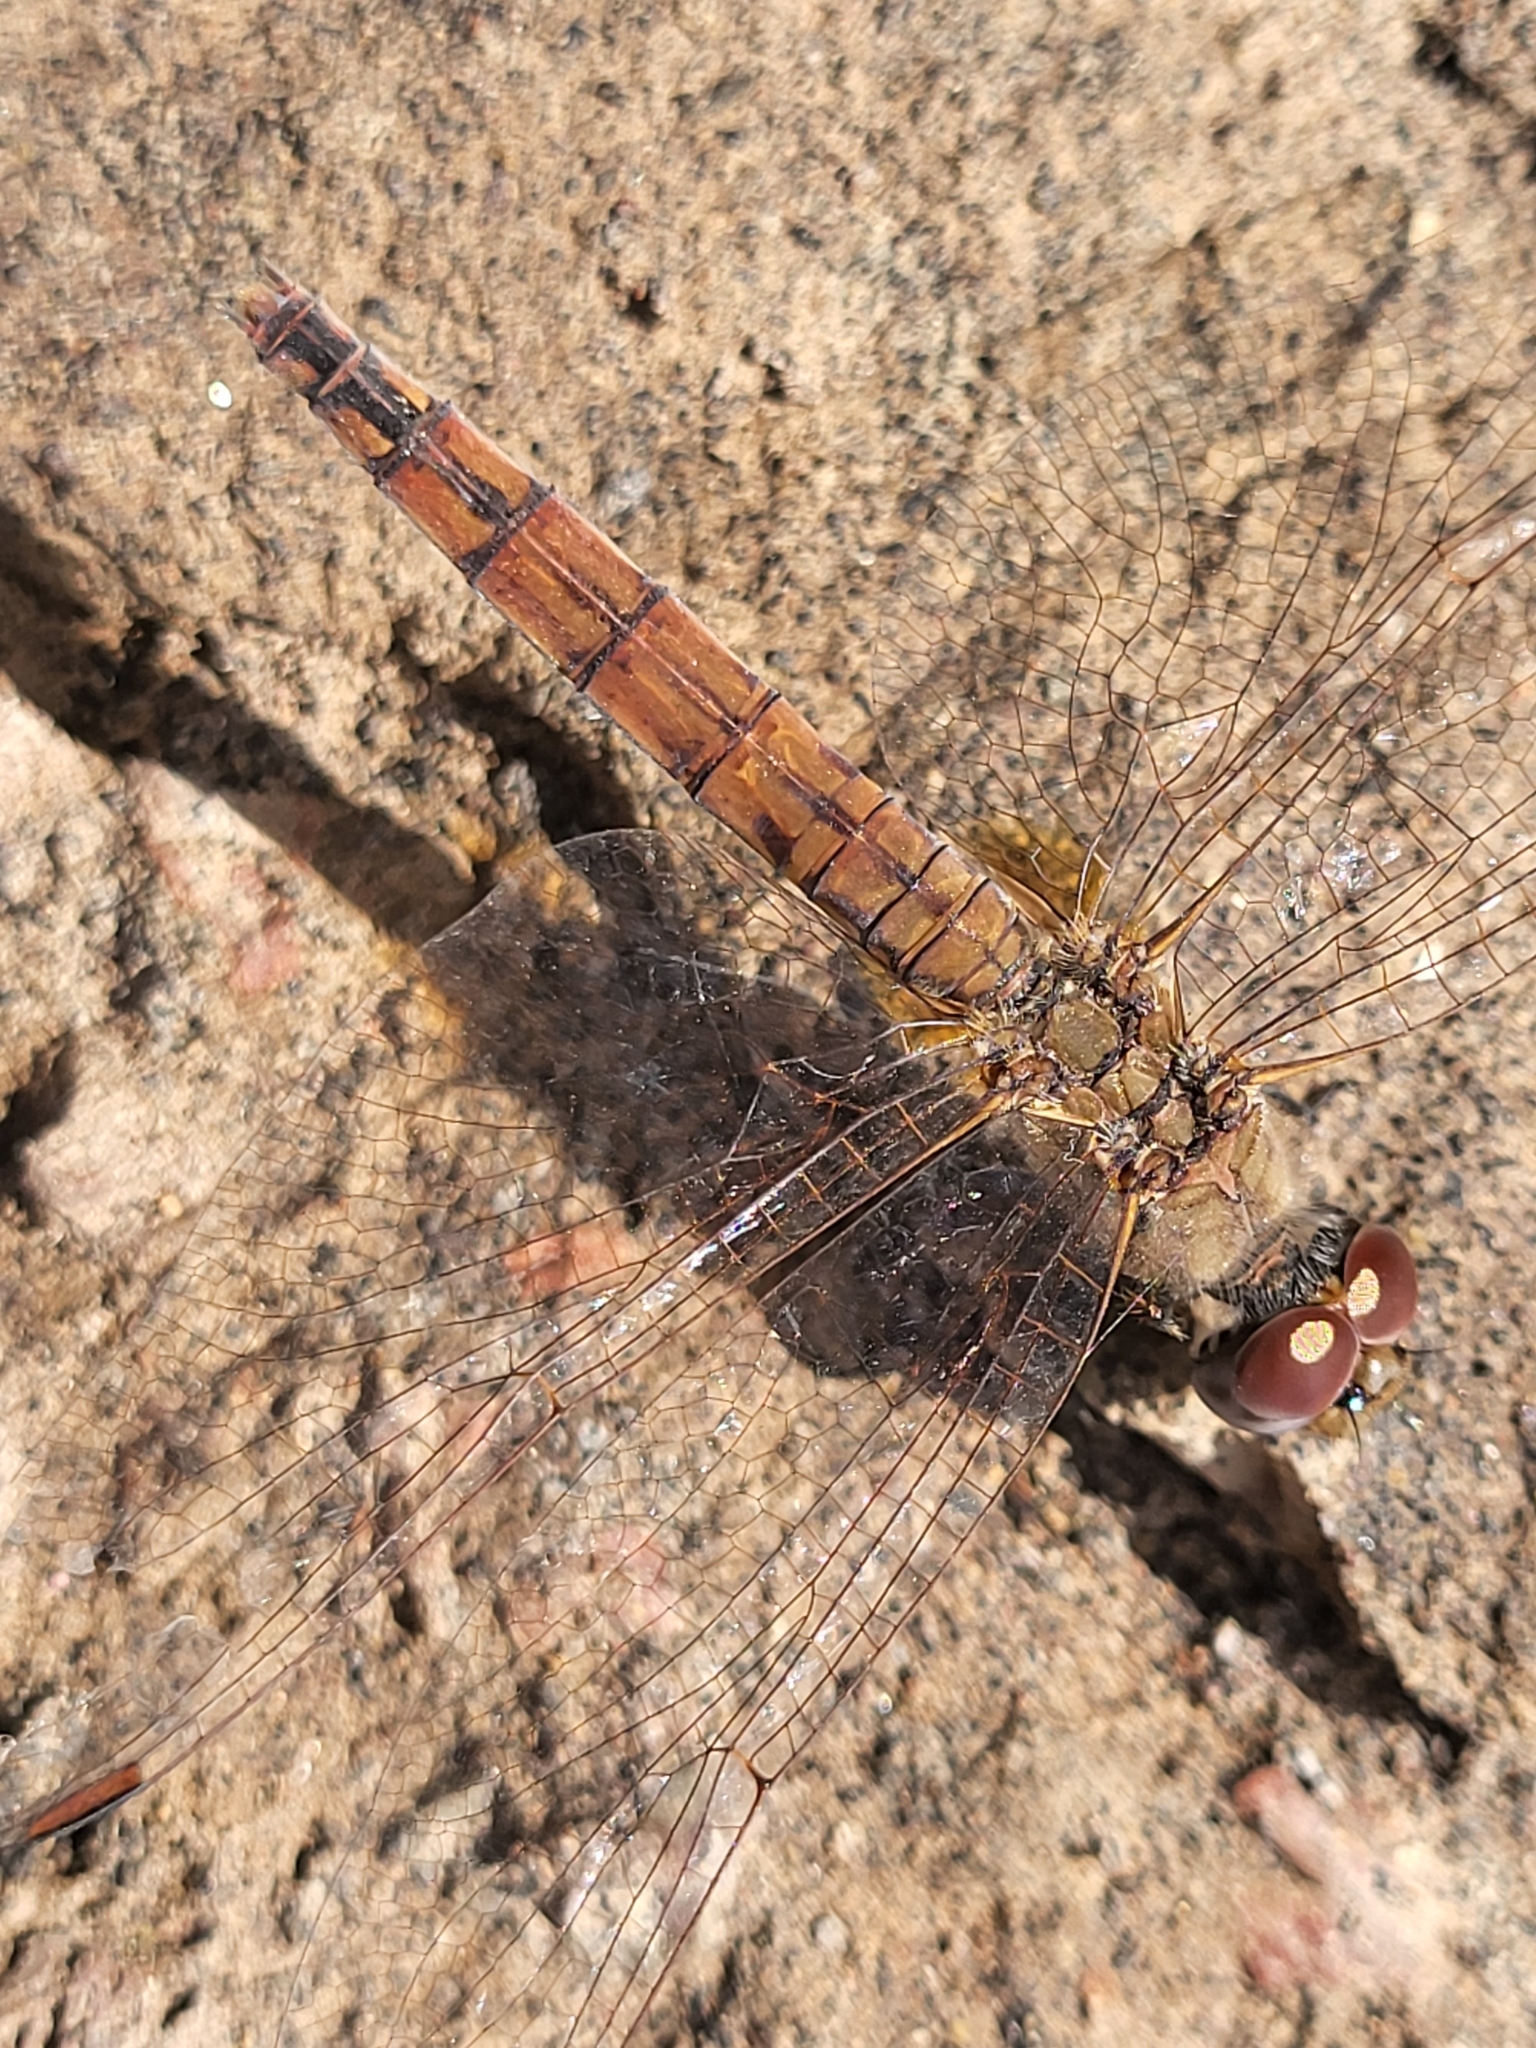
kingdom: Animalia
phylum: Arthropoda
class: Insecta
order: Odonata
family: Libellulidae
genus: Trithemis
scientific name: Trithemis annulata
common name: Violet dropwing
